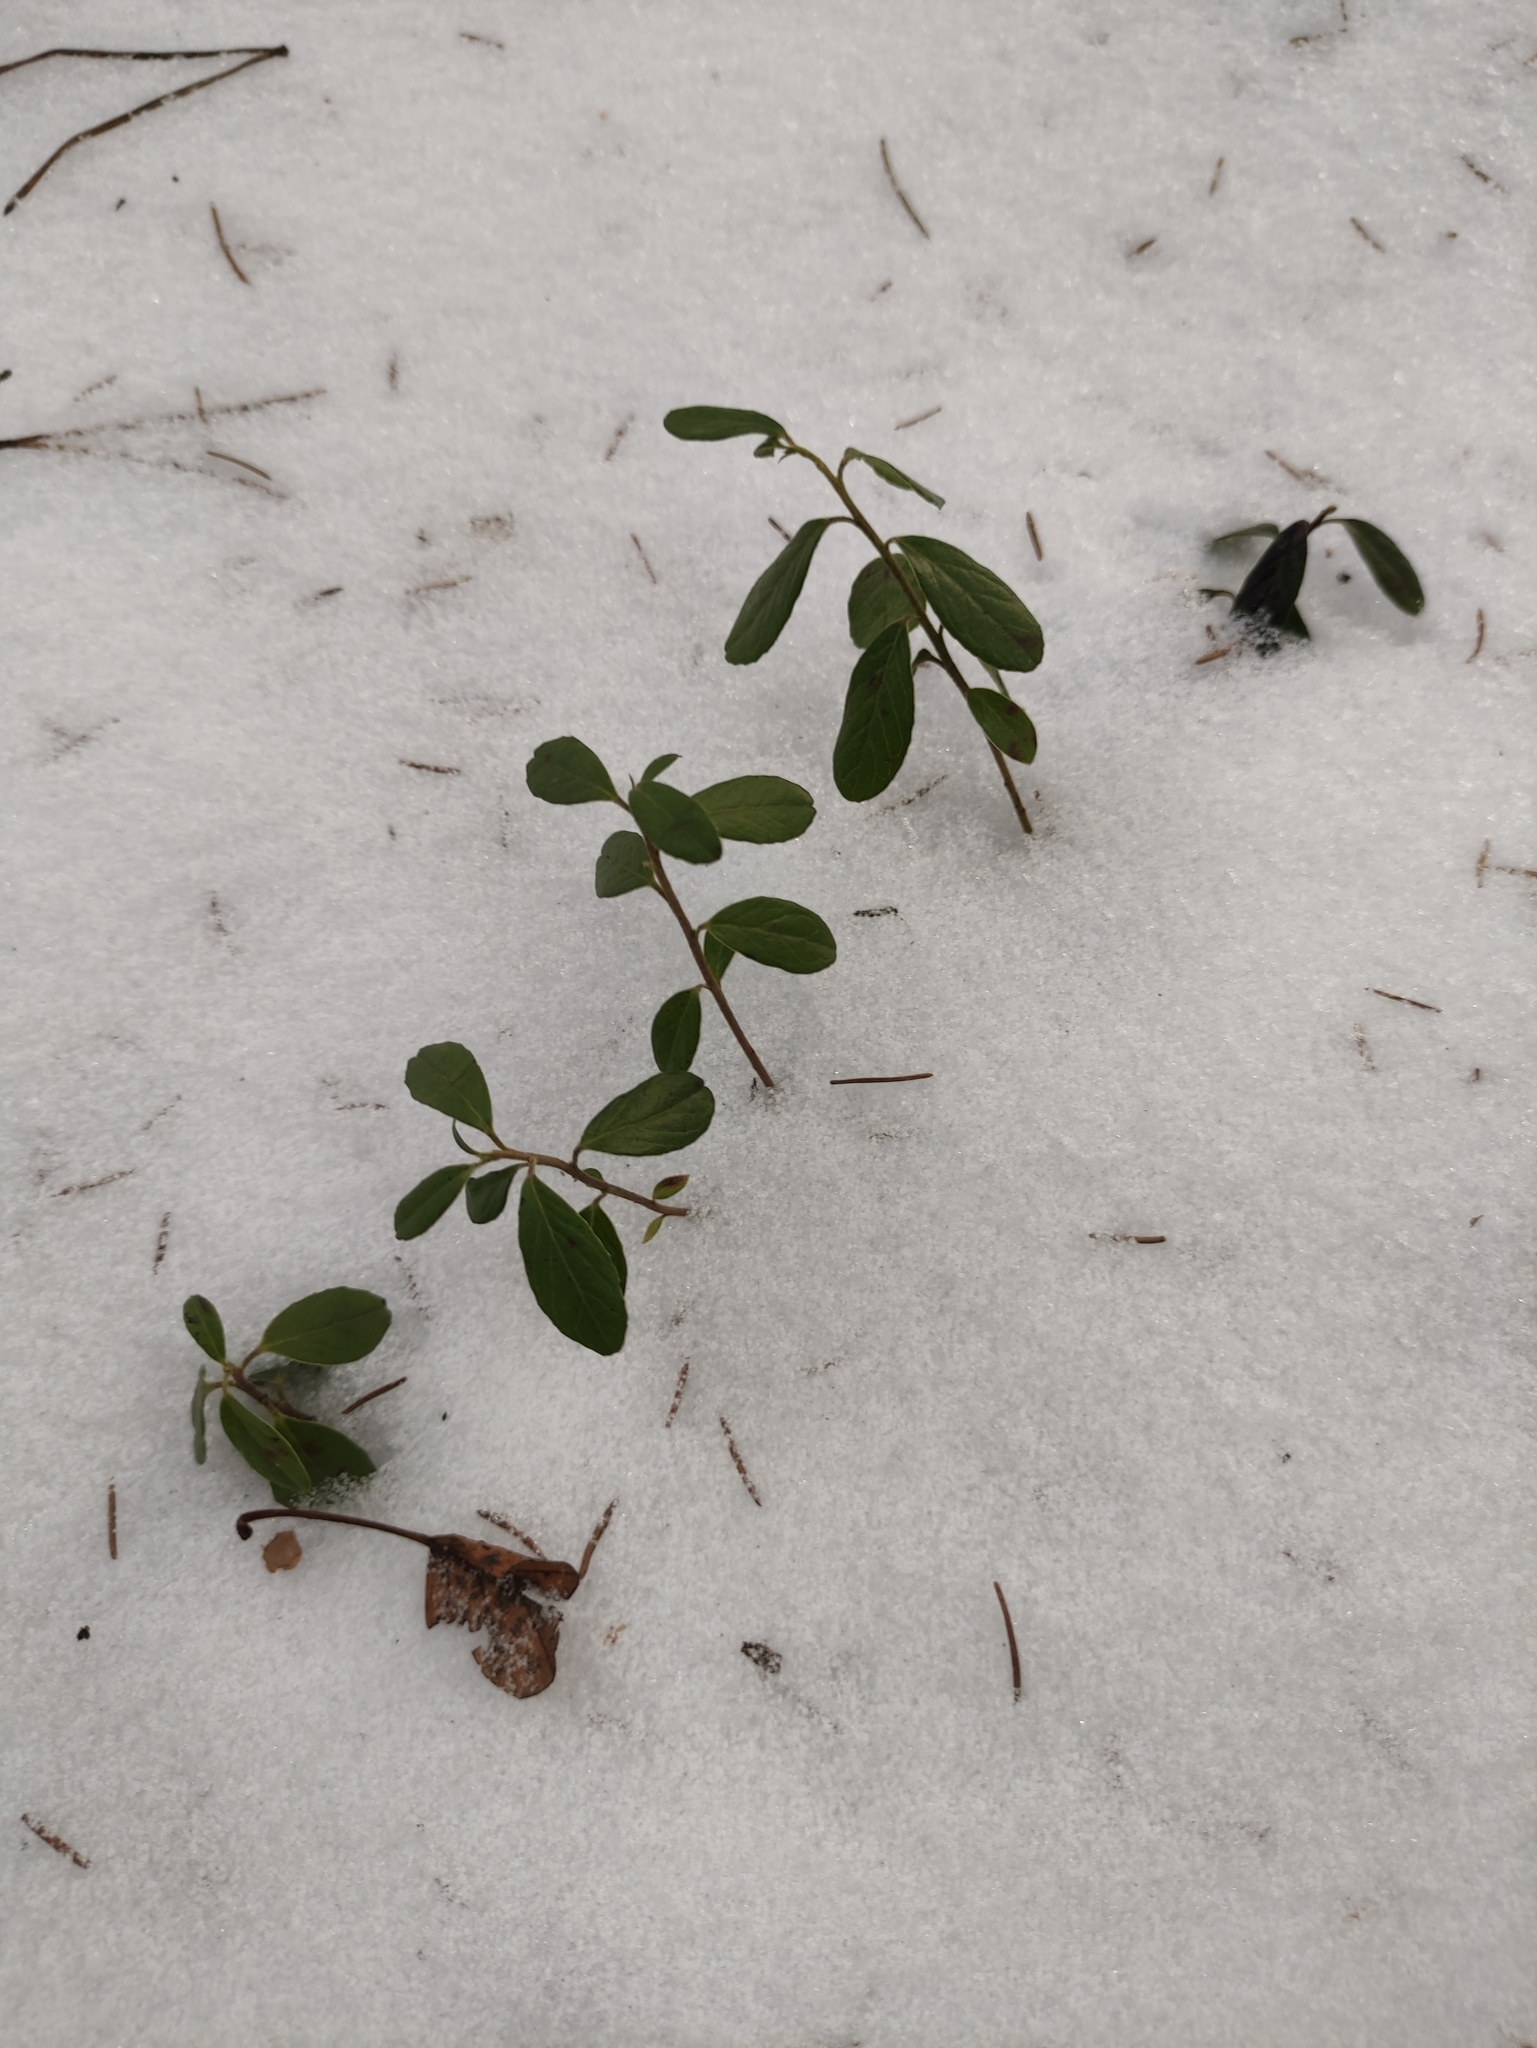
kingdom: Plantae
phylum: Tracheophyta
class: Magnoliopsida
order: Ericales
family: Ericaceae
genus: Vaccinium
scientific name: Vaccinium vitis-idaea
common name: Cowberry
